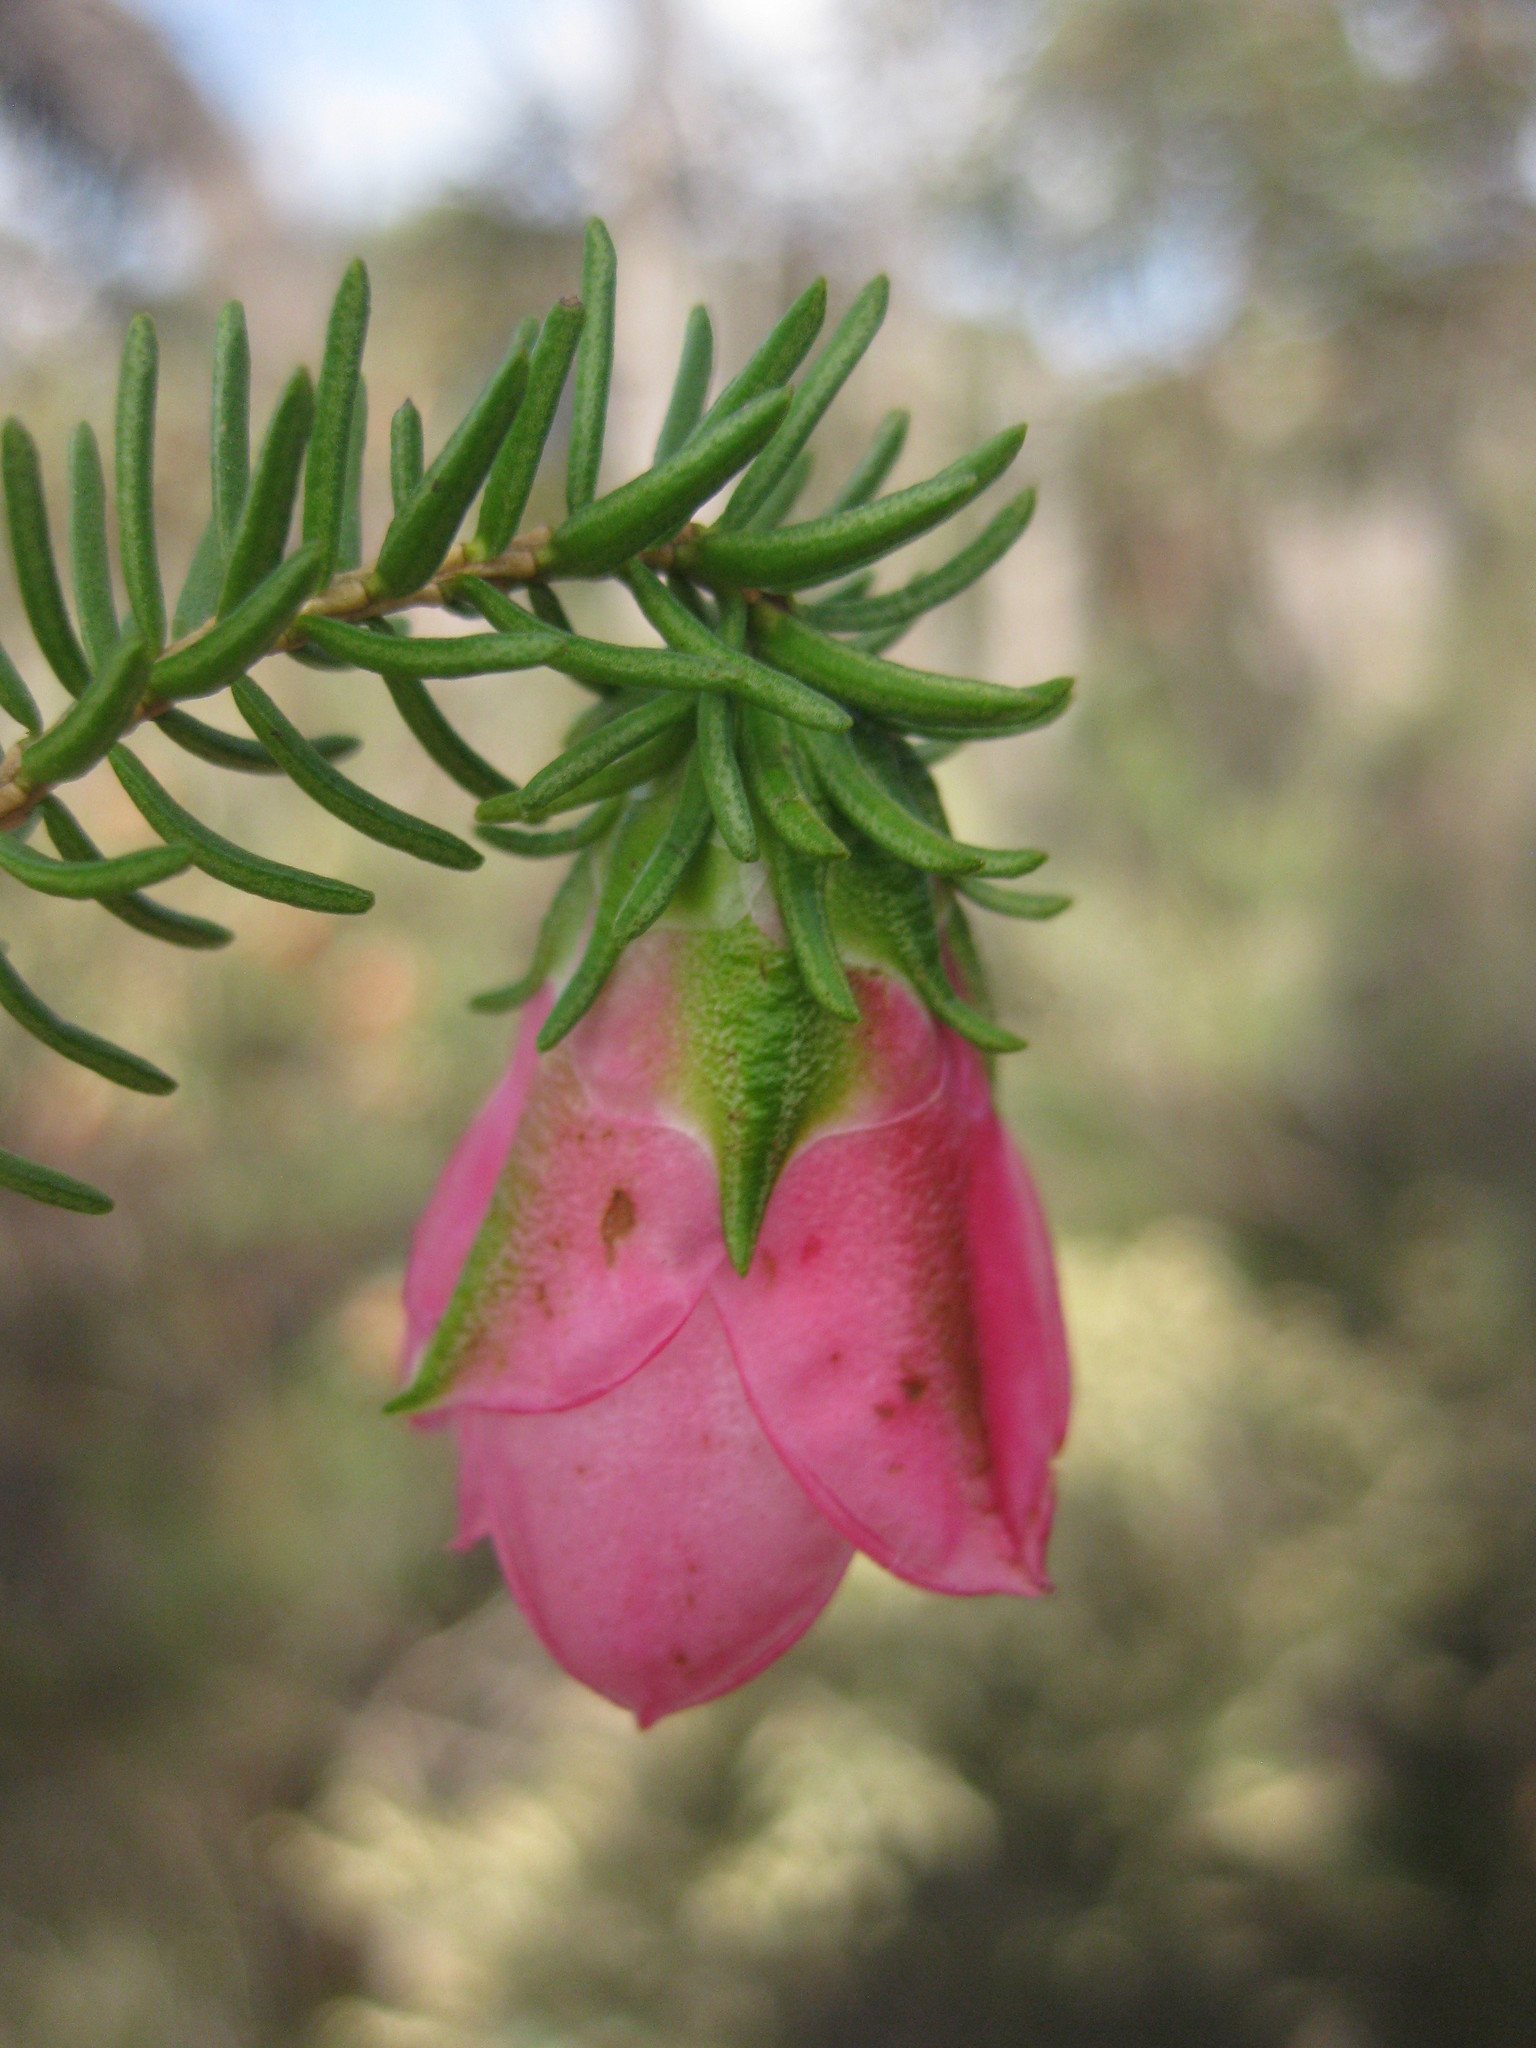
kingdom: Plantae
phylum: Tracheophyta
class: Magnoliopsida
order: Myrtales
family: Myrtaceae
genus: Darwinia
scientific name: Darwinia lejostyla
